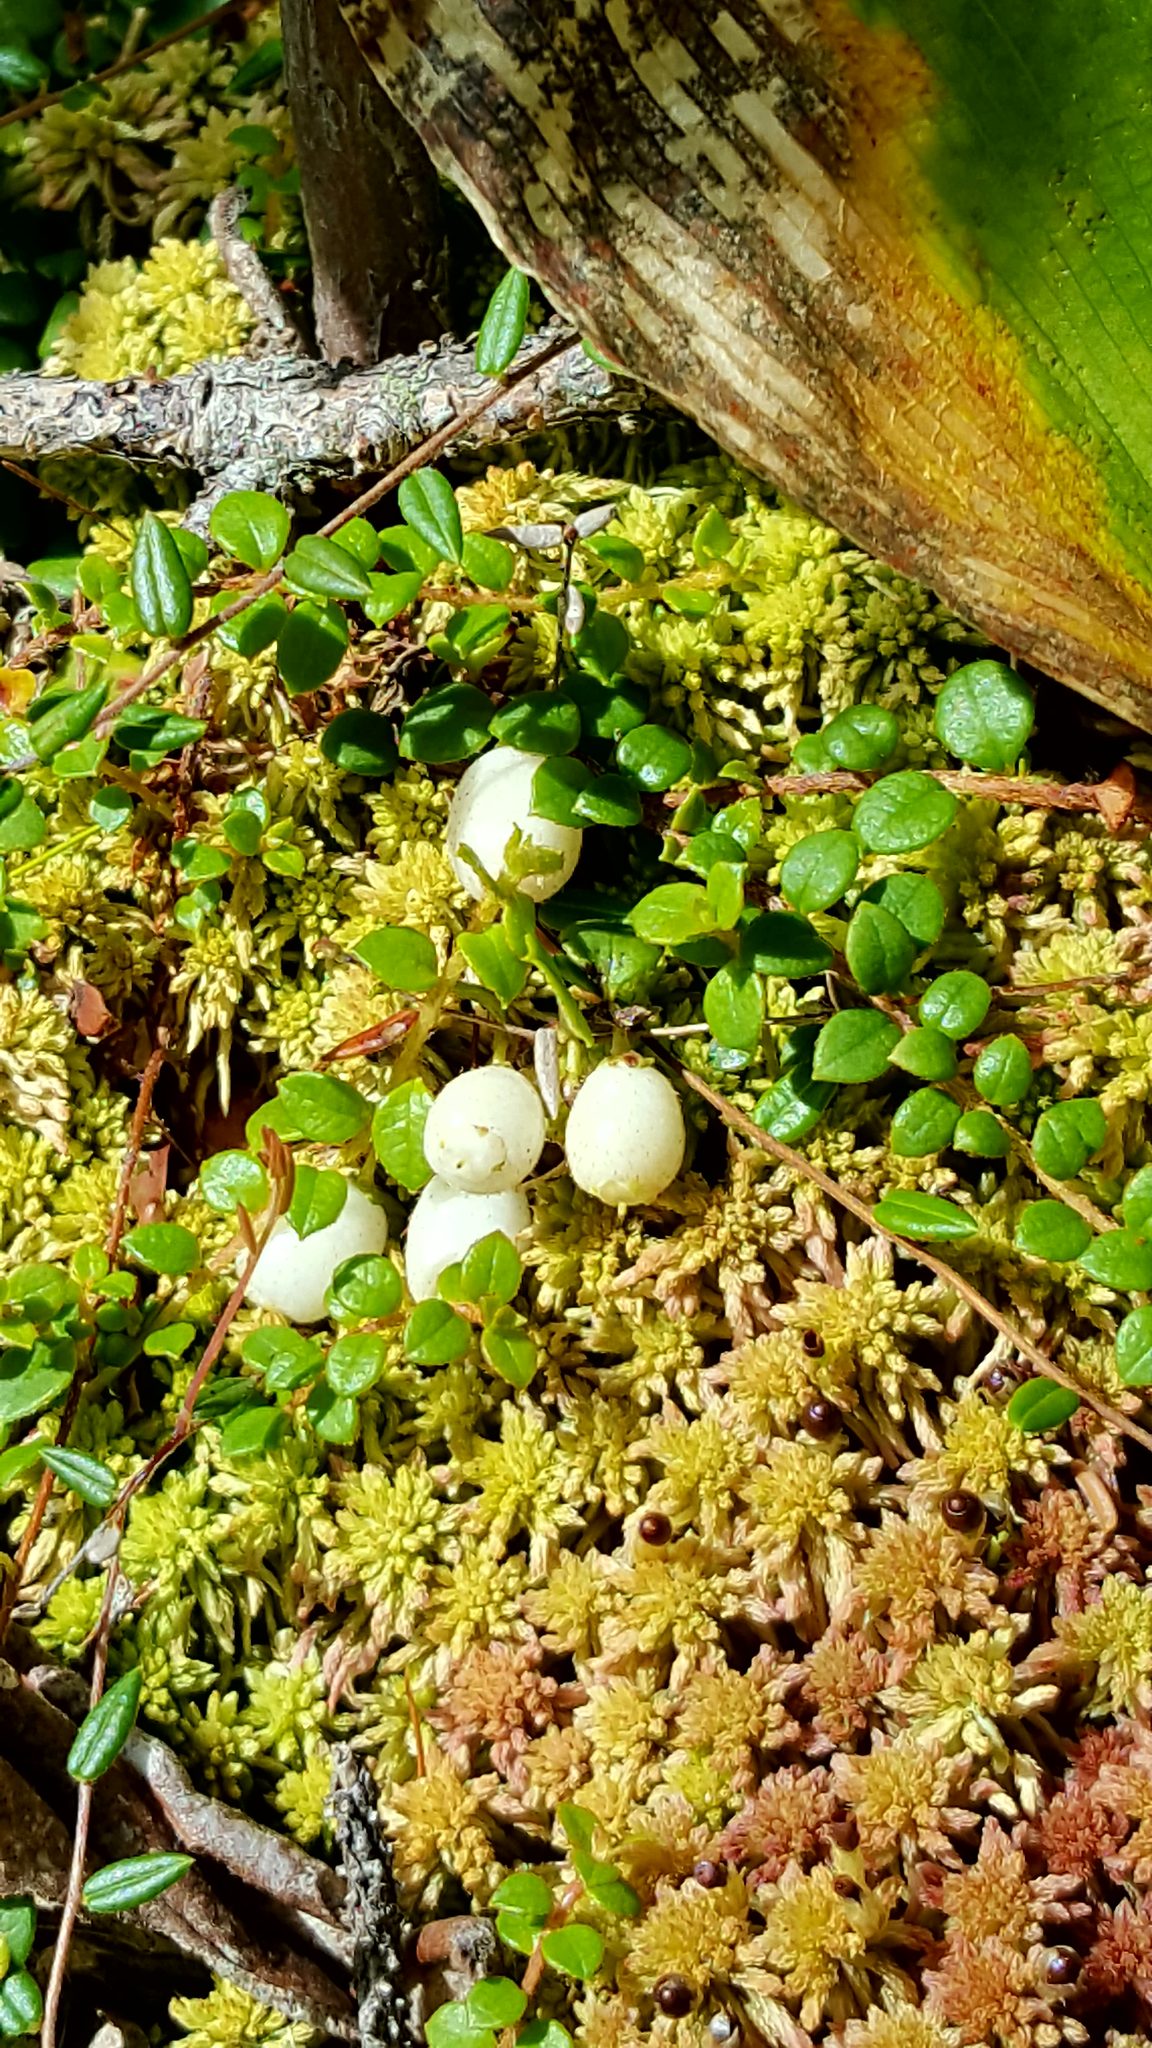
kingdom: Plantae
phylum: Tracheophyta
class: Magnoliopsida
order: Ericales
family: Ericaceae
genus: Gaultheria
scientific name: Gaultheria hispidula
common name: Cancer wintergreen
